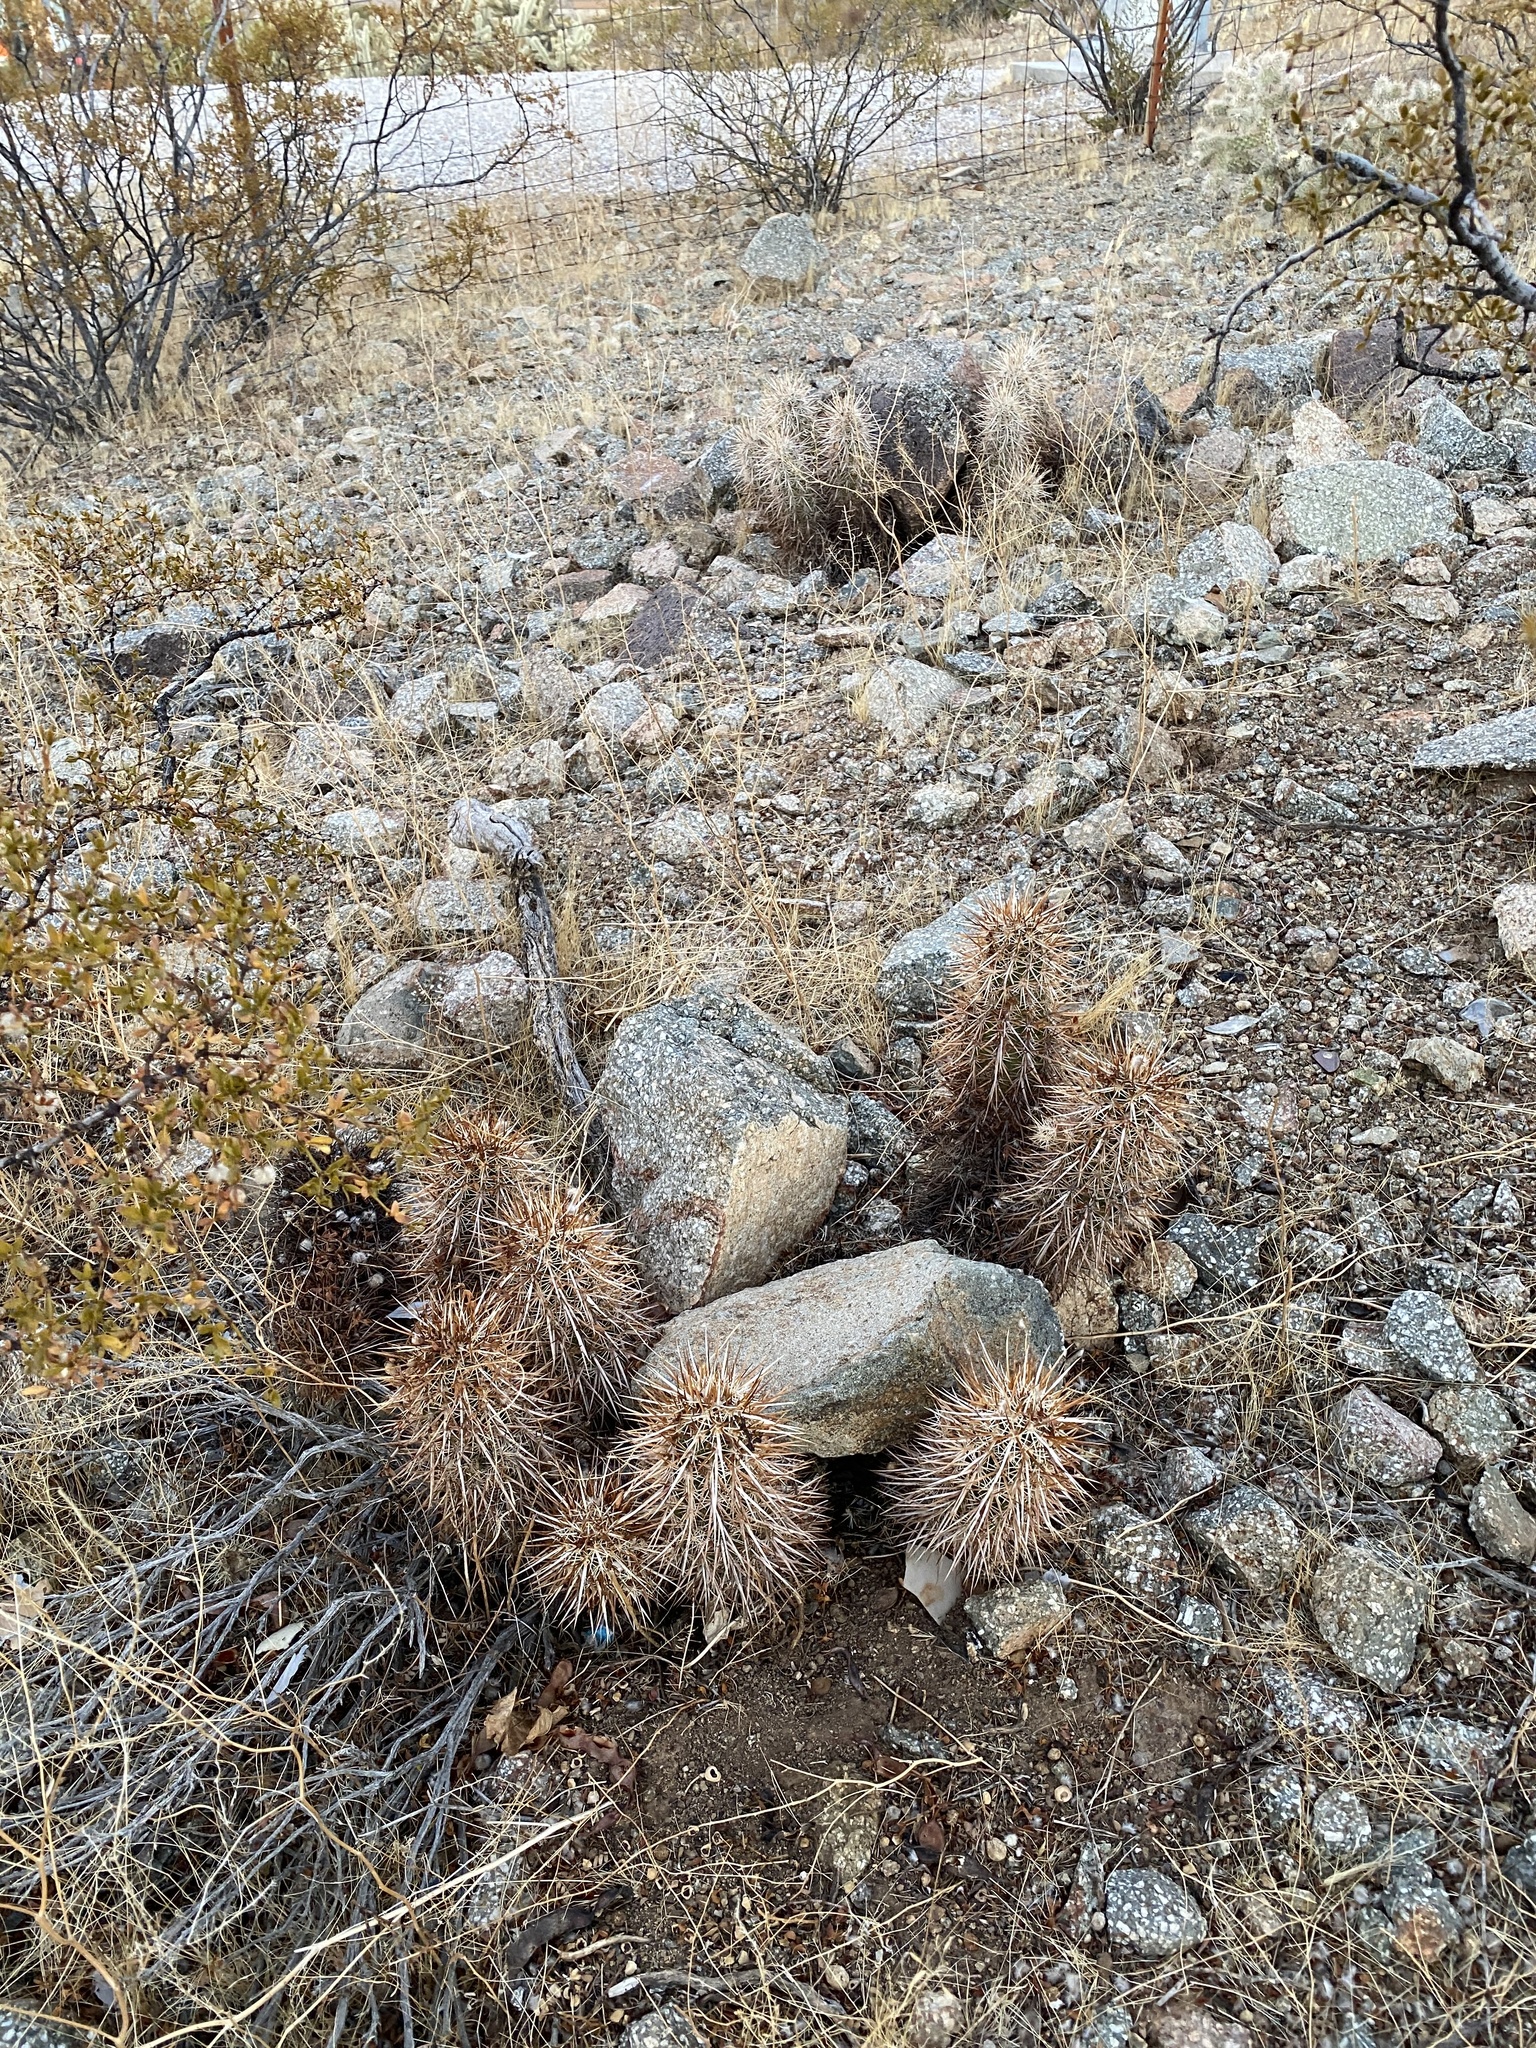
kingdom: Plantae
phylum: Tracheophyta
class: Magnoliopsida
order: Caryophyllales
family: Cactaceae
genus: Echinocereus
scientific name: Echinocereus engelmannii
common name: Engelmann's hedgehog cactus
